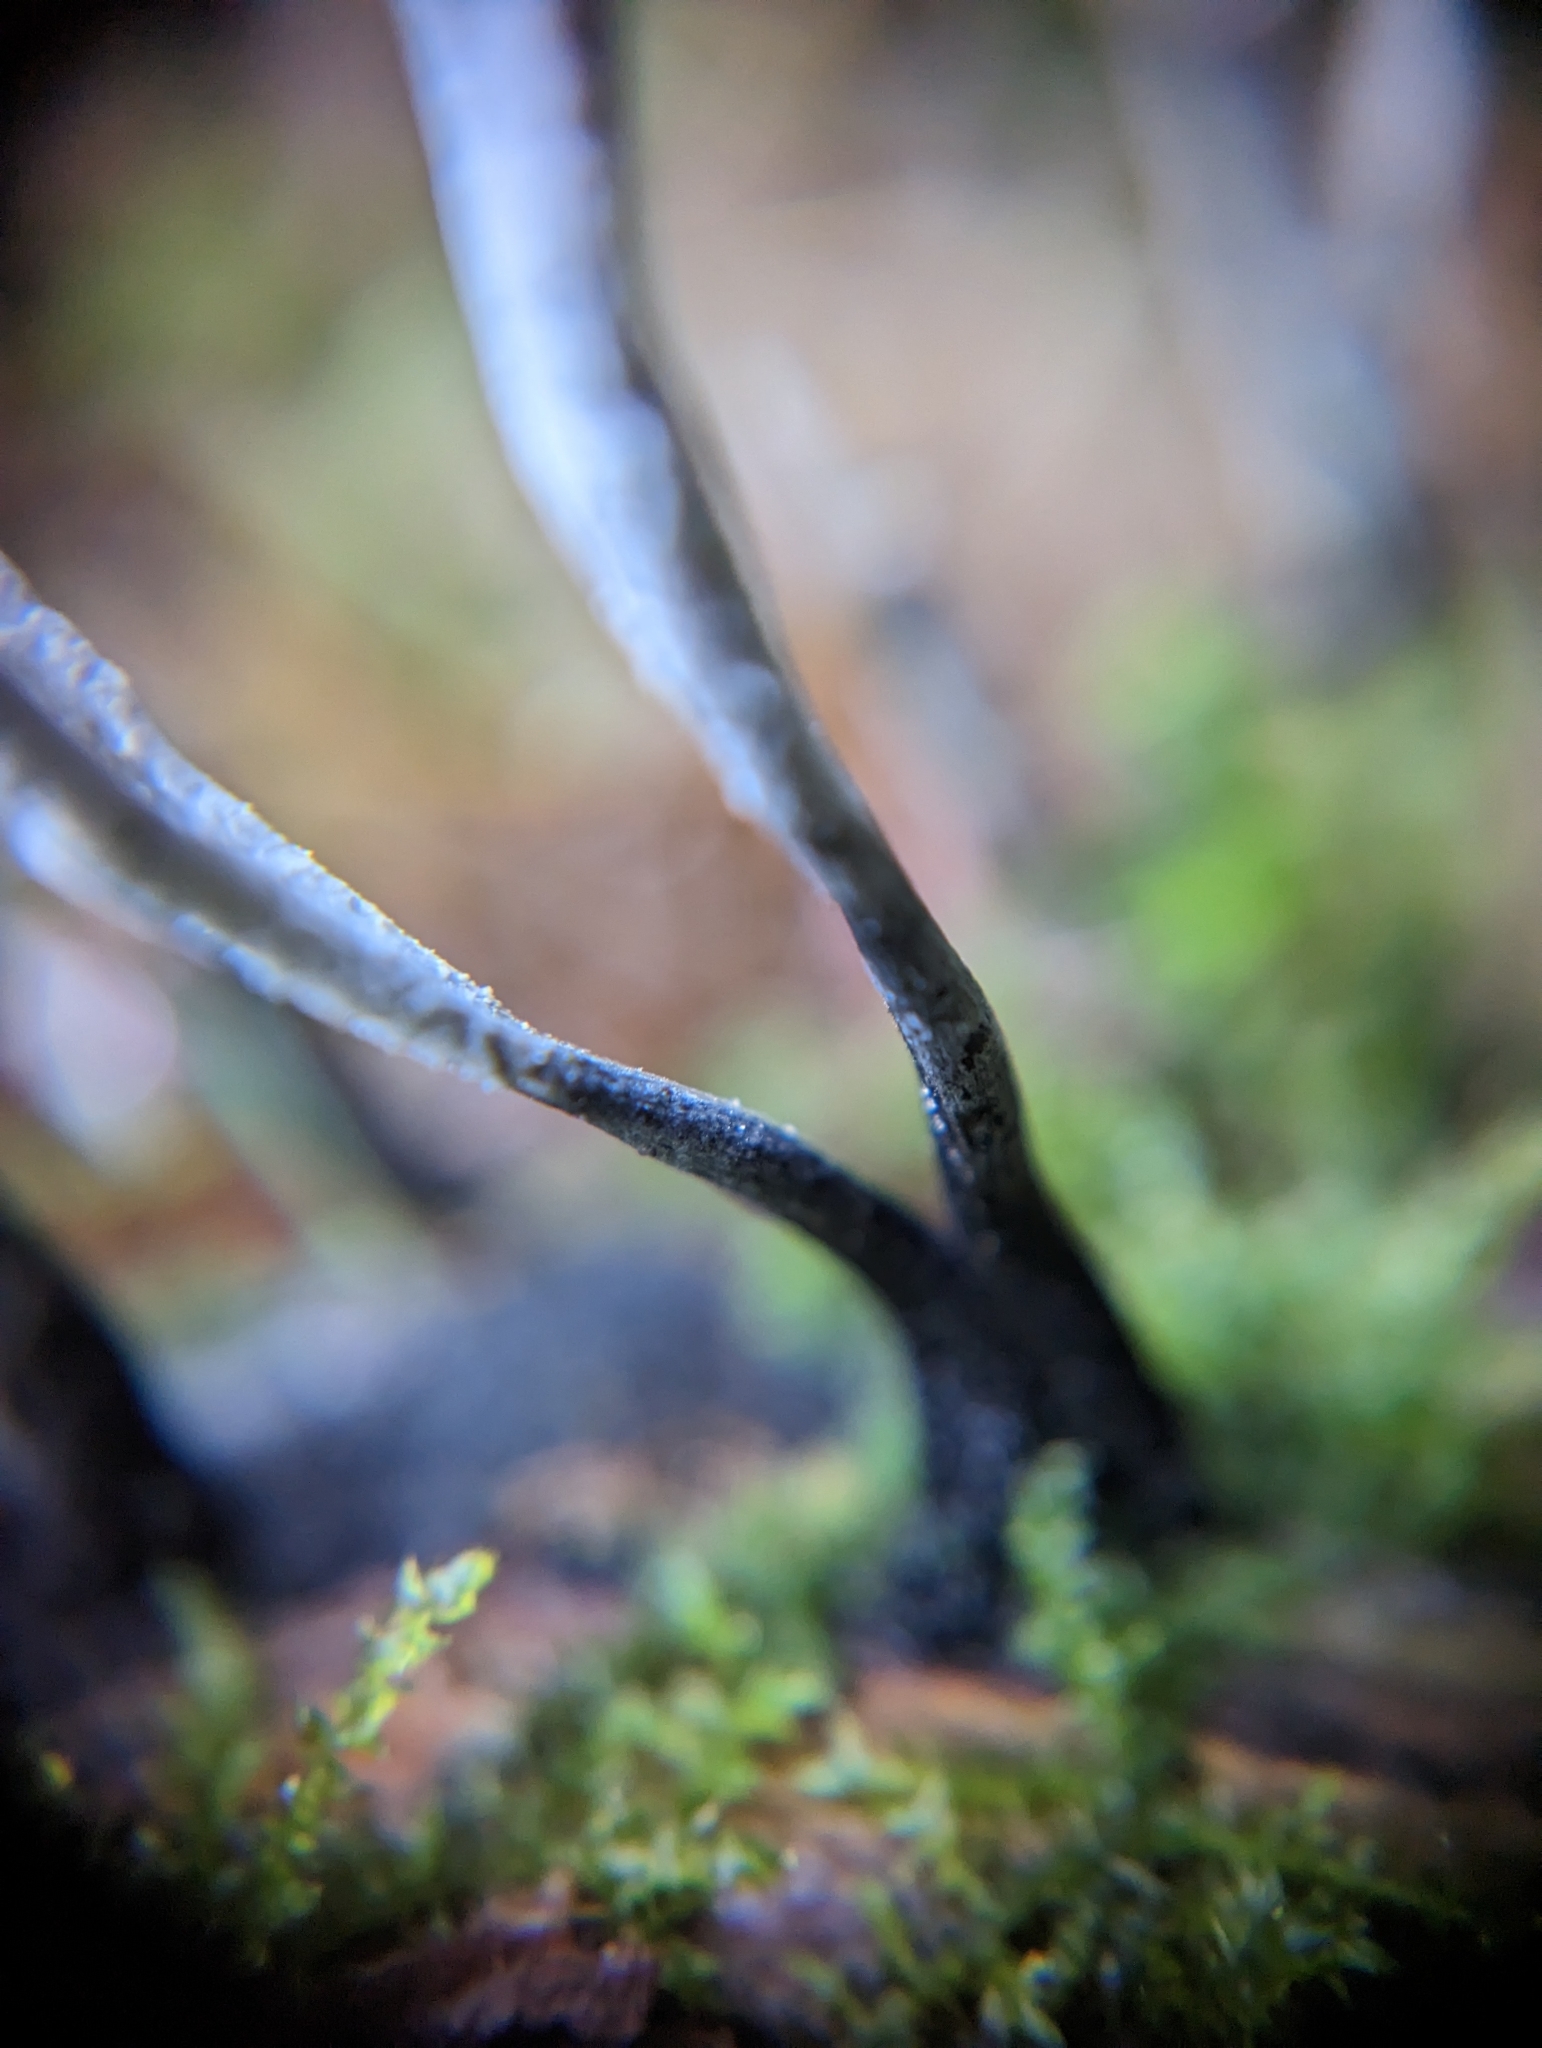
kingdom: Fungi
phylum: Ascomycota
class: Sordariomycetes
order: Xylariales
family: Xylariaceae
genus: Xylaria
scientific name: Xylaria hypoxylon
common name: Candle-snuff fungus
